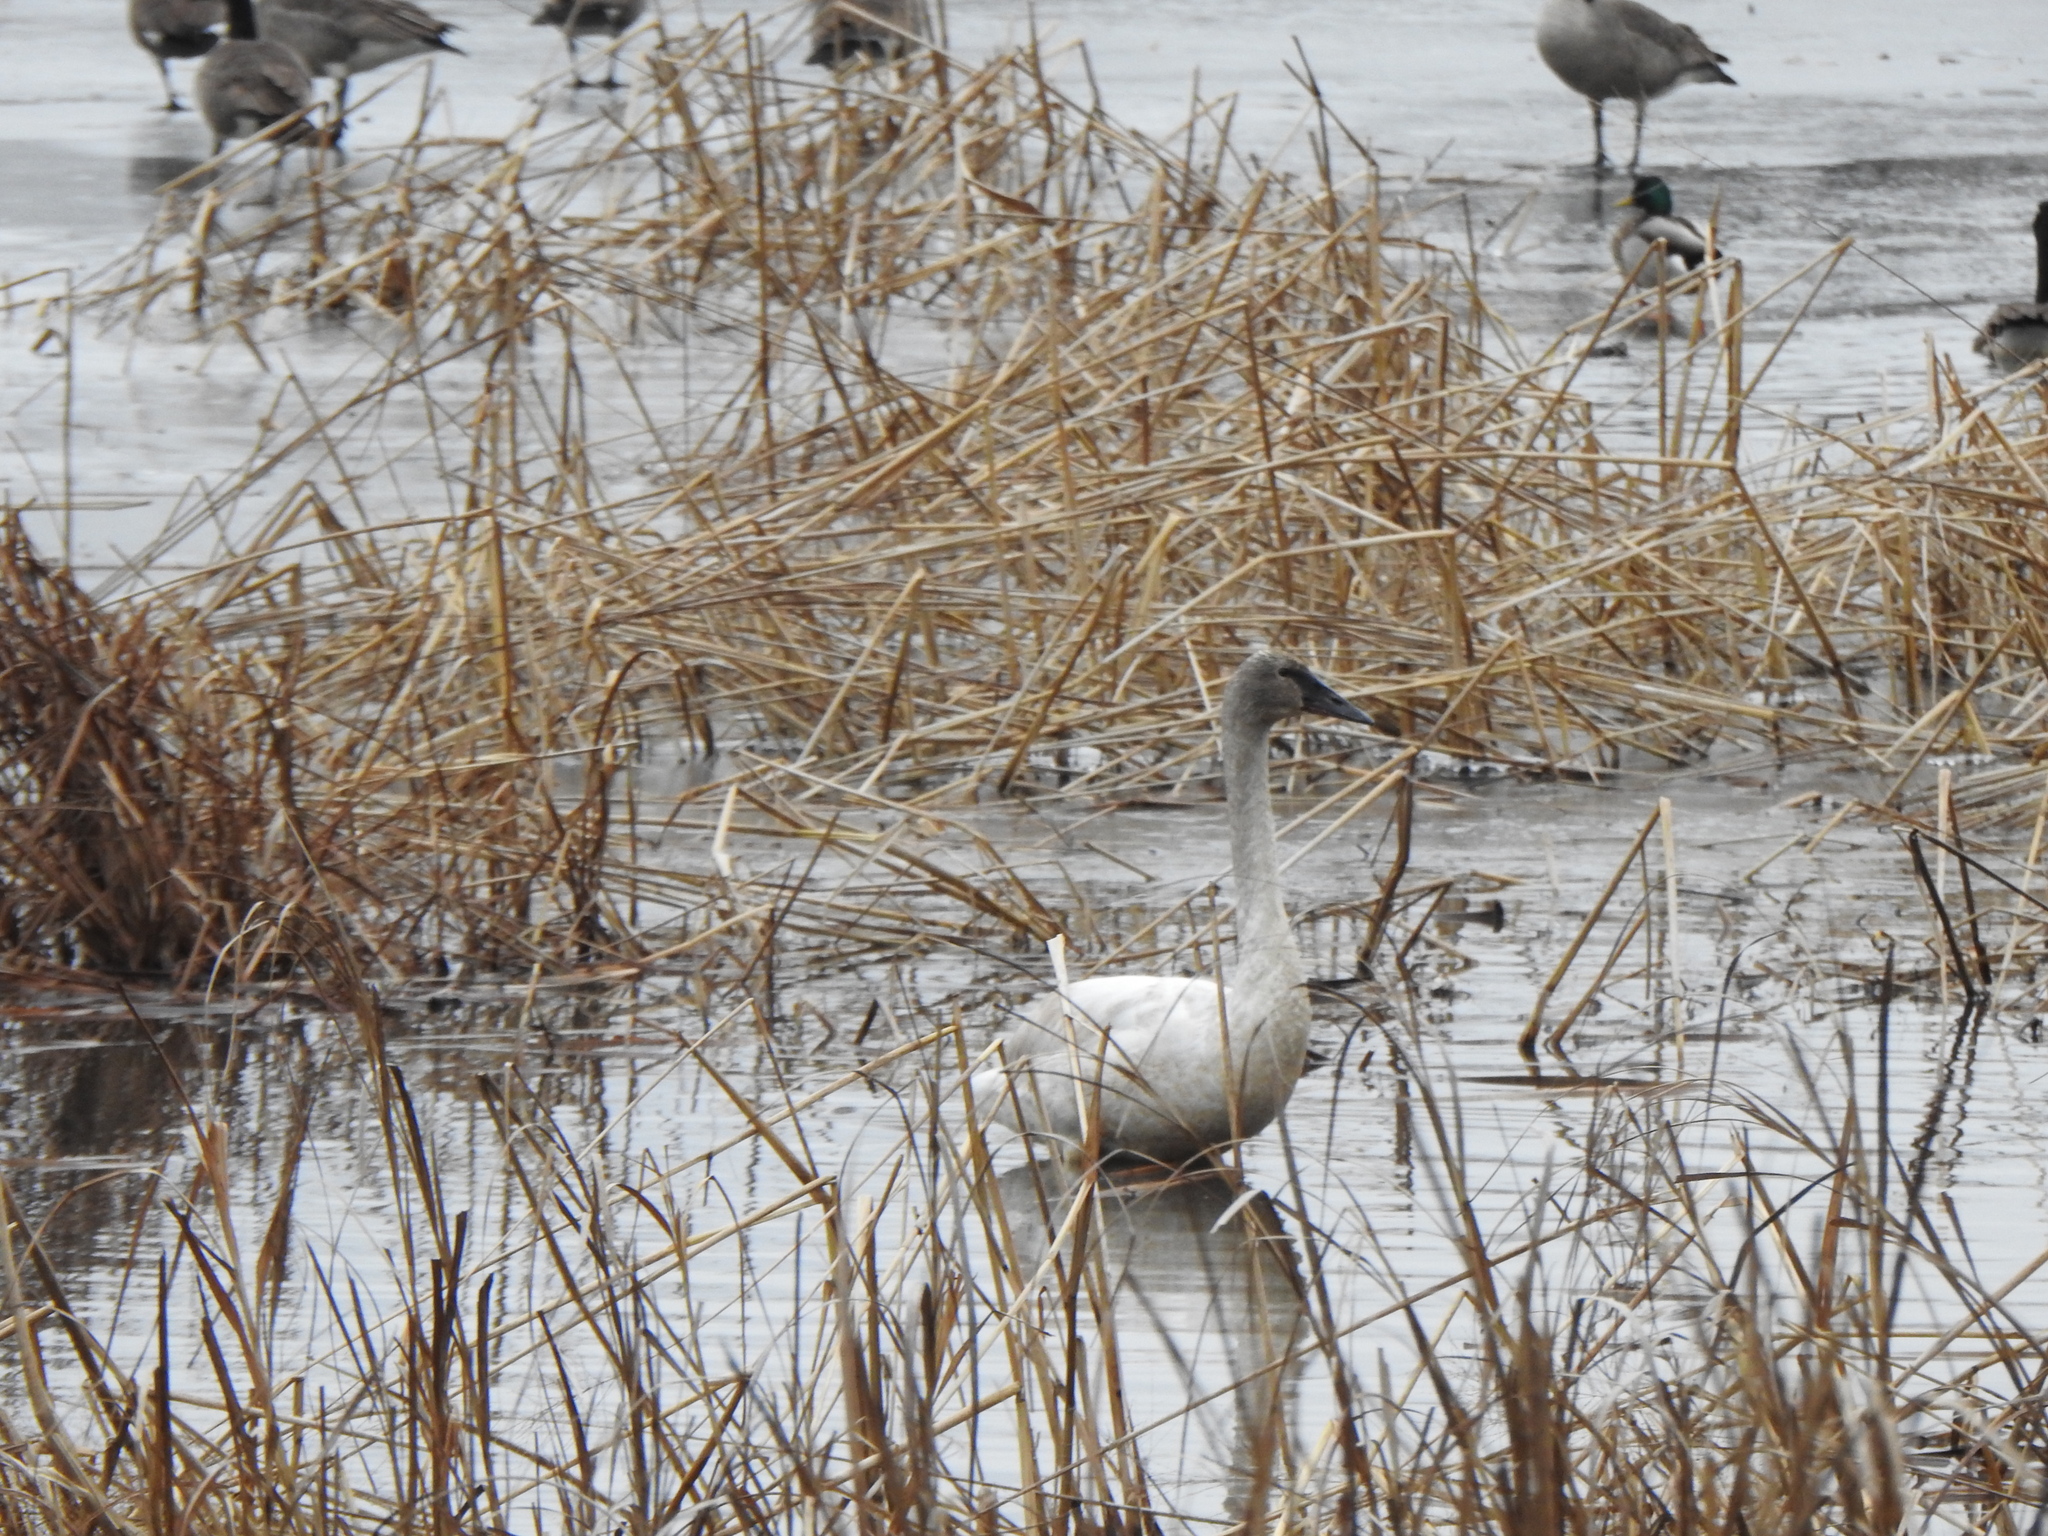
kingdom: Animalia
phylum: Chordata
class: Aves
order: Anseriformes
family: Anatidae
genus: Cygnus
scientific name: Cygnus buccinator
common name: Trumpeter swan
